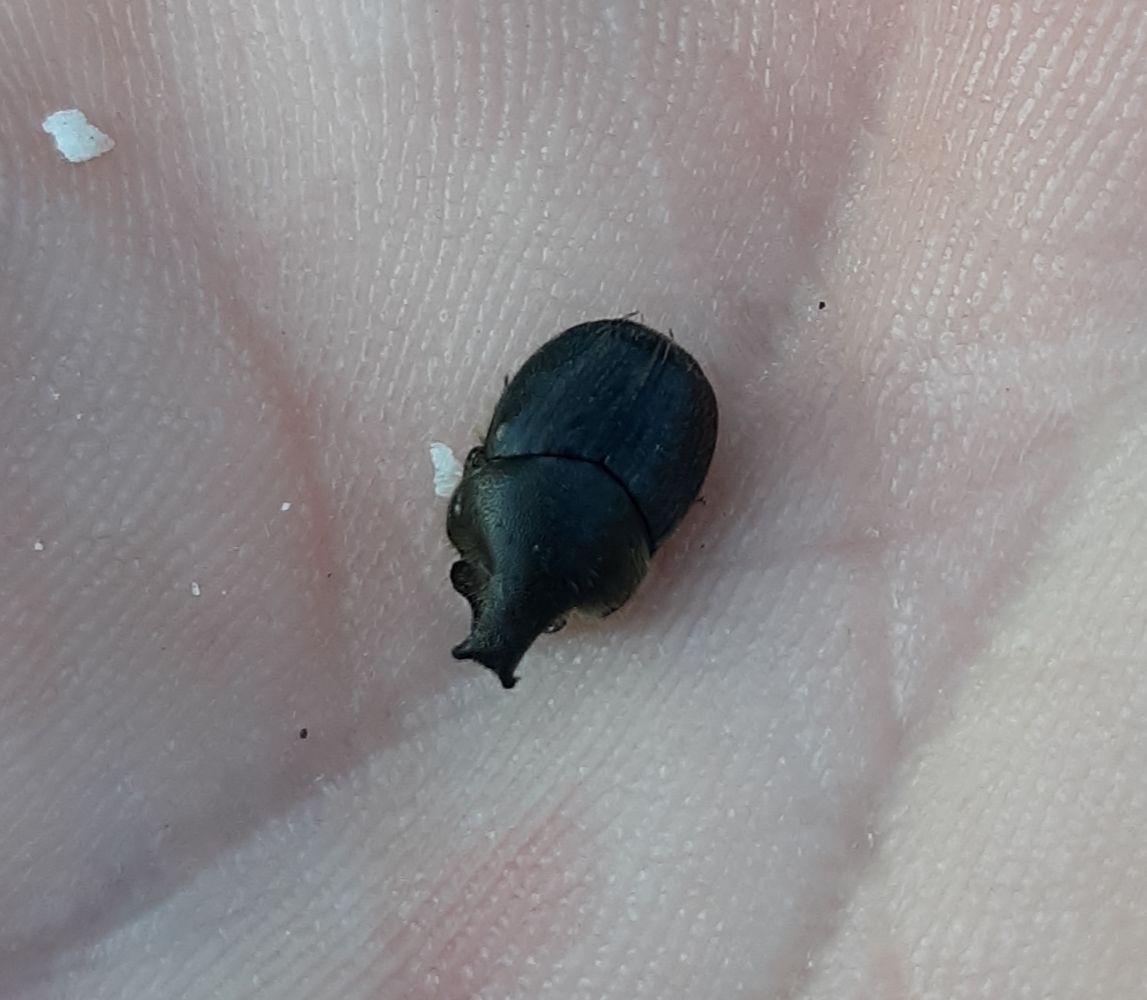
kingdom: Animalia
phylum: Arthropoda
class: Insecta
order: Coleoptera
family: Scarabaeidae
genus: Onthophagus
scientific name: Onthophagus hecate
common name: Scooped scarab
